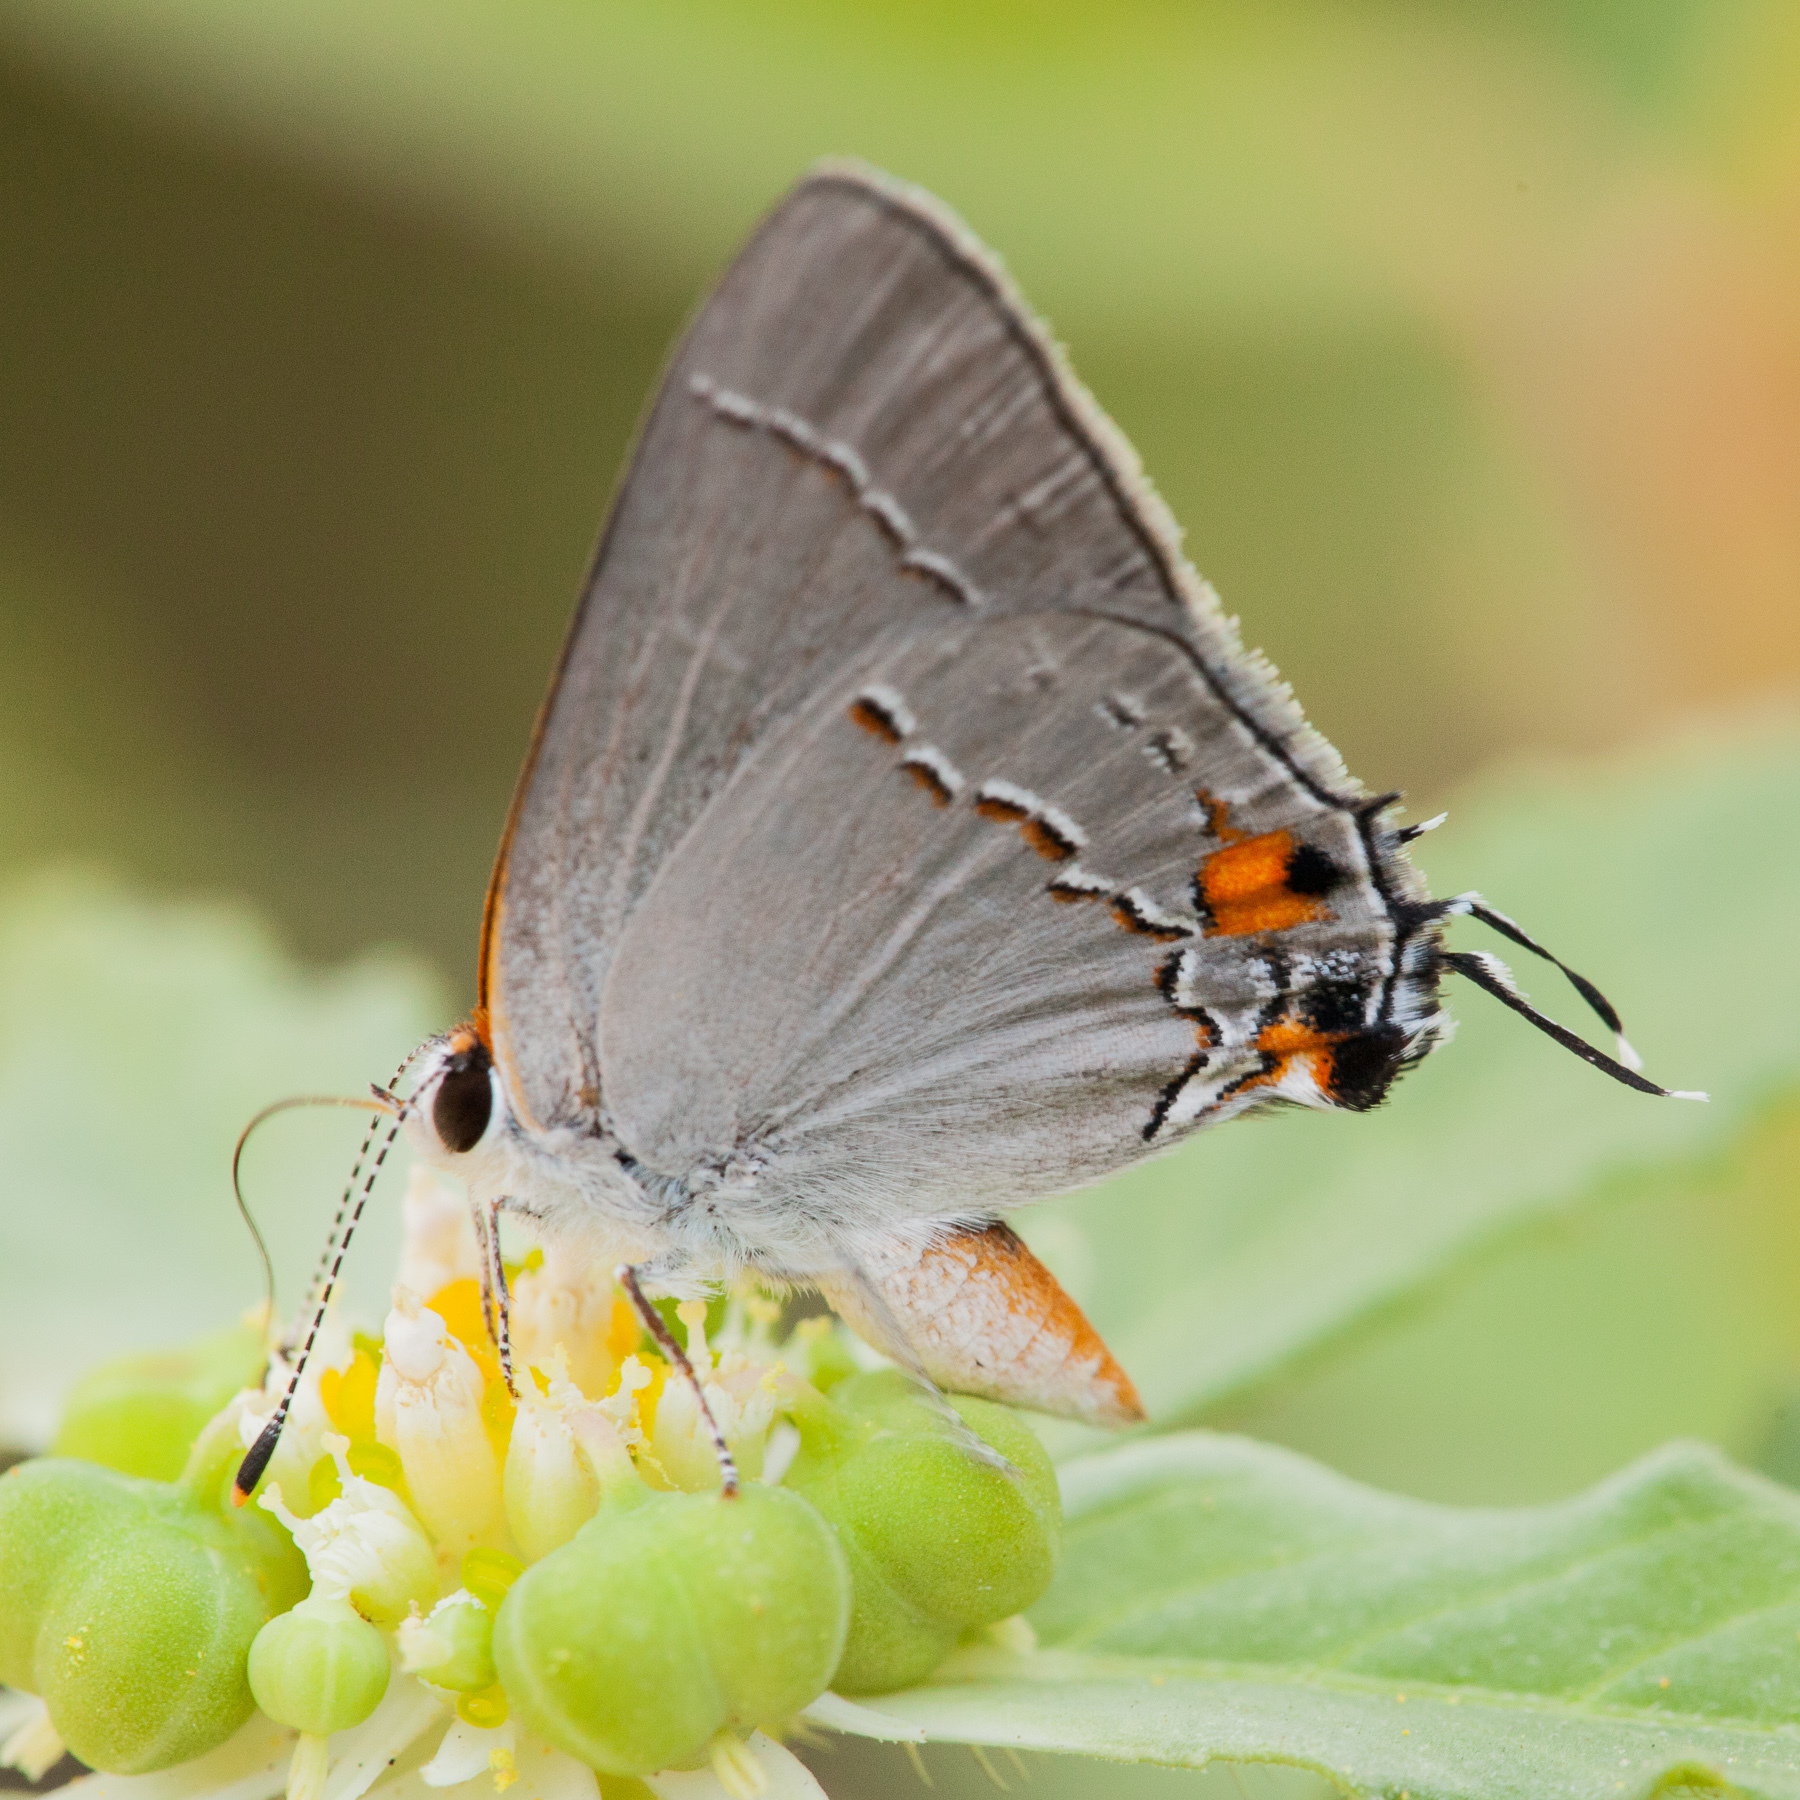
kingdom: Animalia
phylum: Arthropoda
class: Insecta
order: Lepidoptera
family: Lycaenidae
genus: Strymon
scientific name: Strymon melinus
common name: Gray hairstreak
